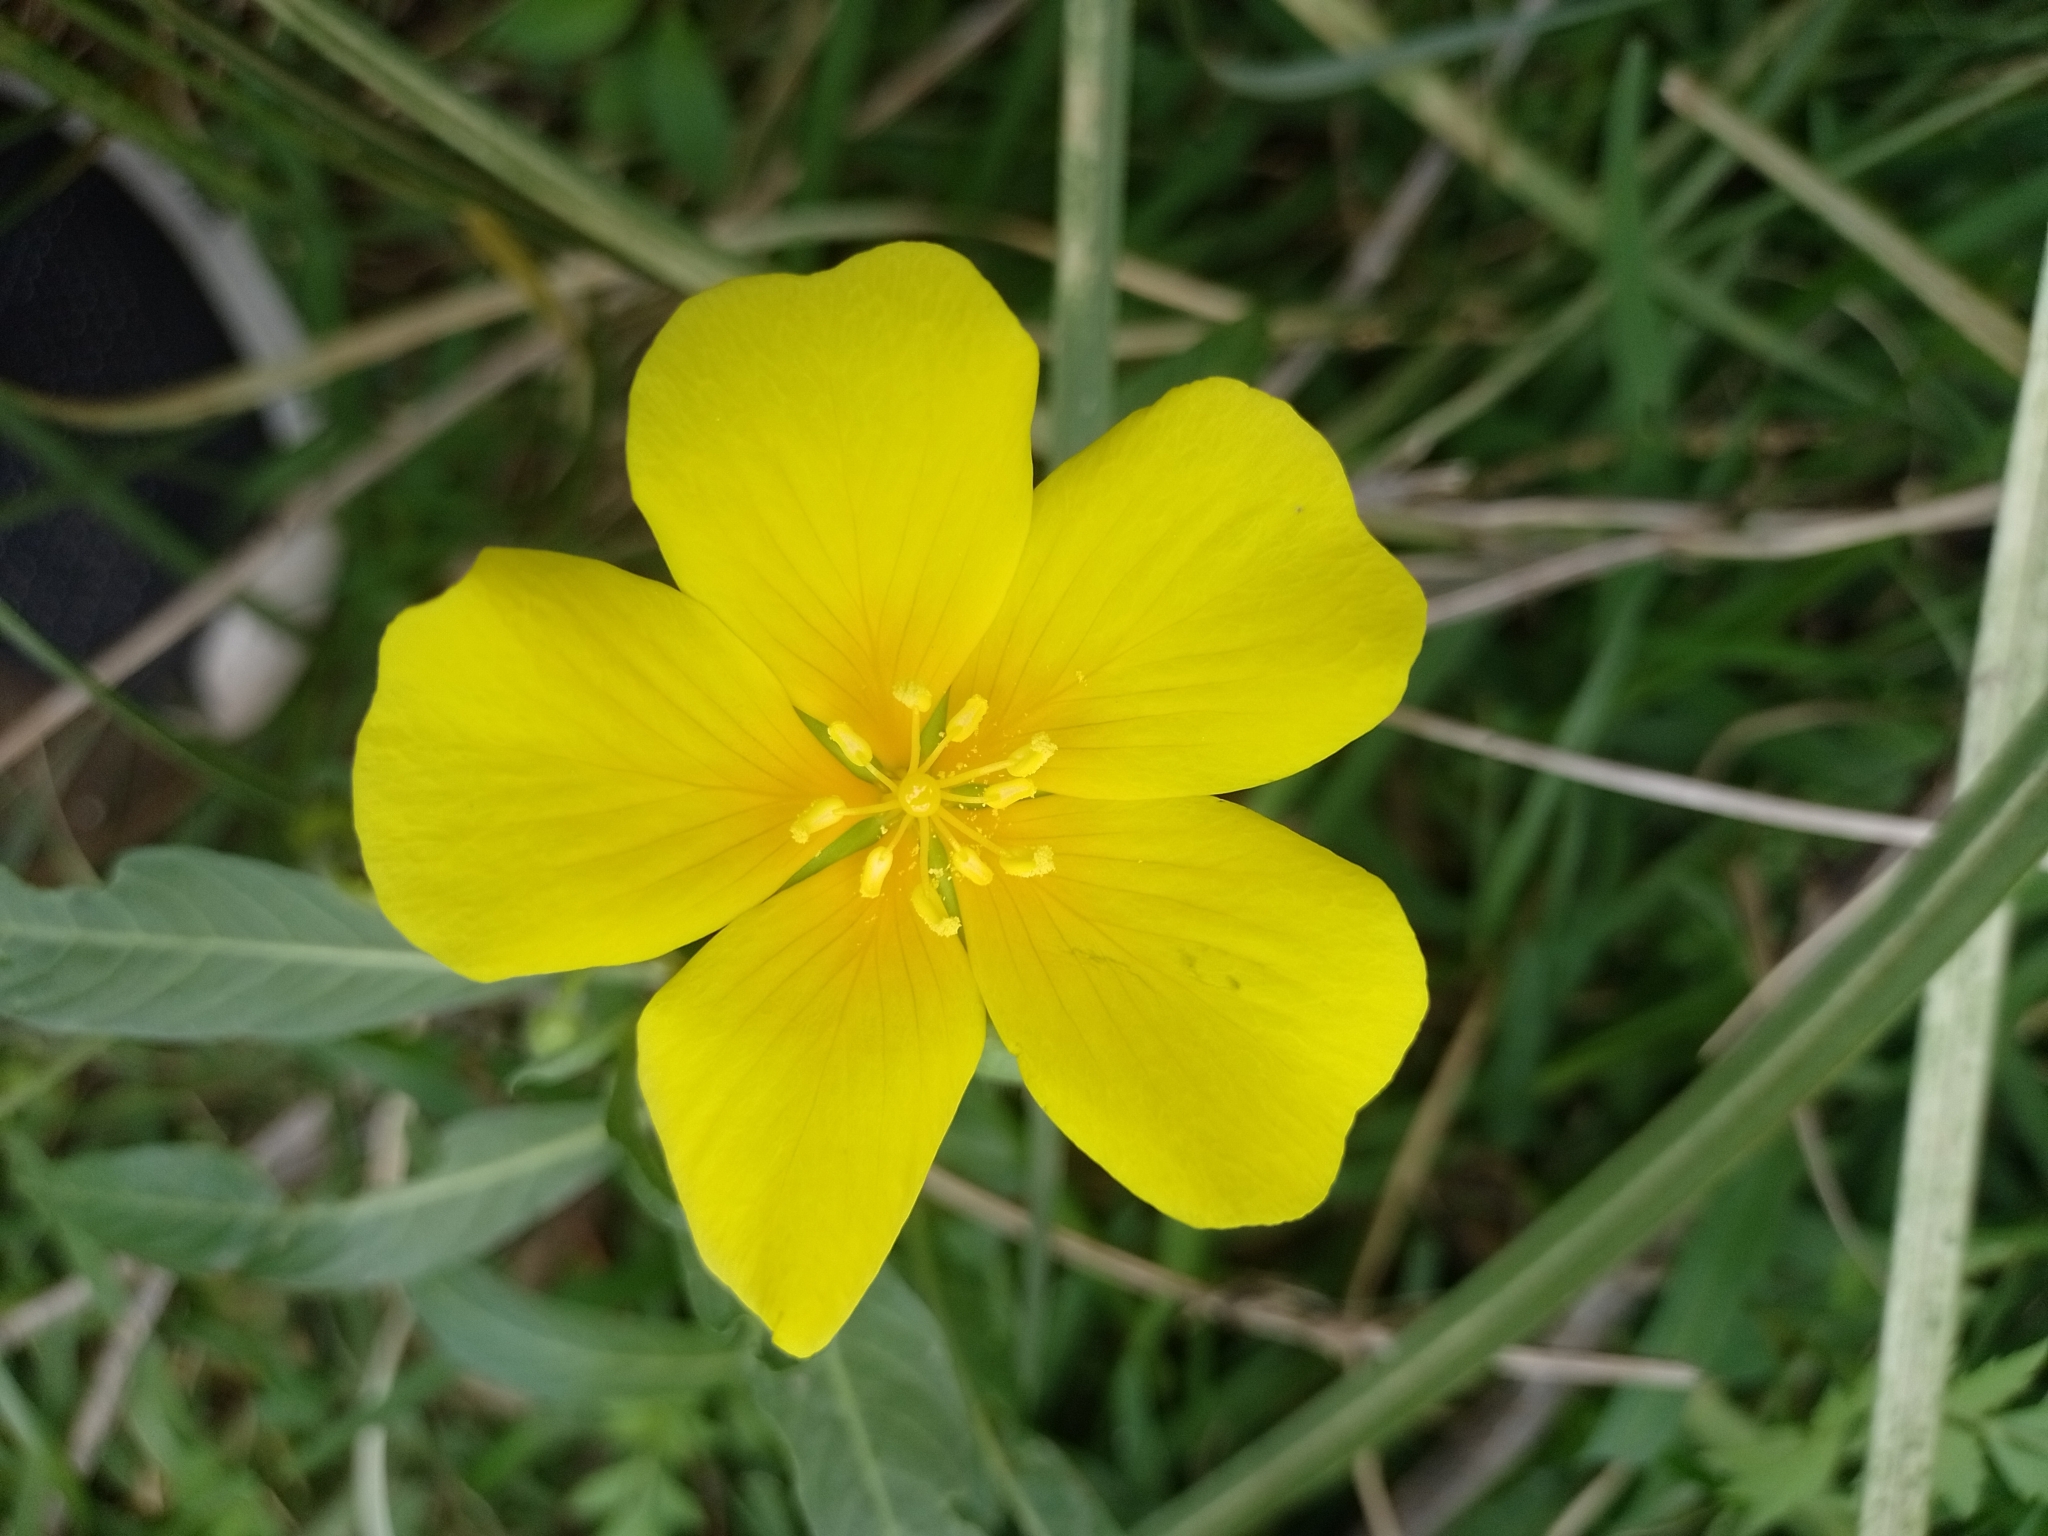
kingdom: Plantae
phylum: Tracheophyta
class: Magnoliopsida
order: Myrtales
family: Onagraceae
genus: Ludwigia
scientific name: Ludwigia hexapetala
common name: Water-primrose
